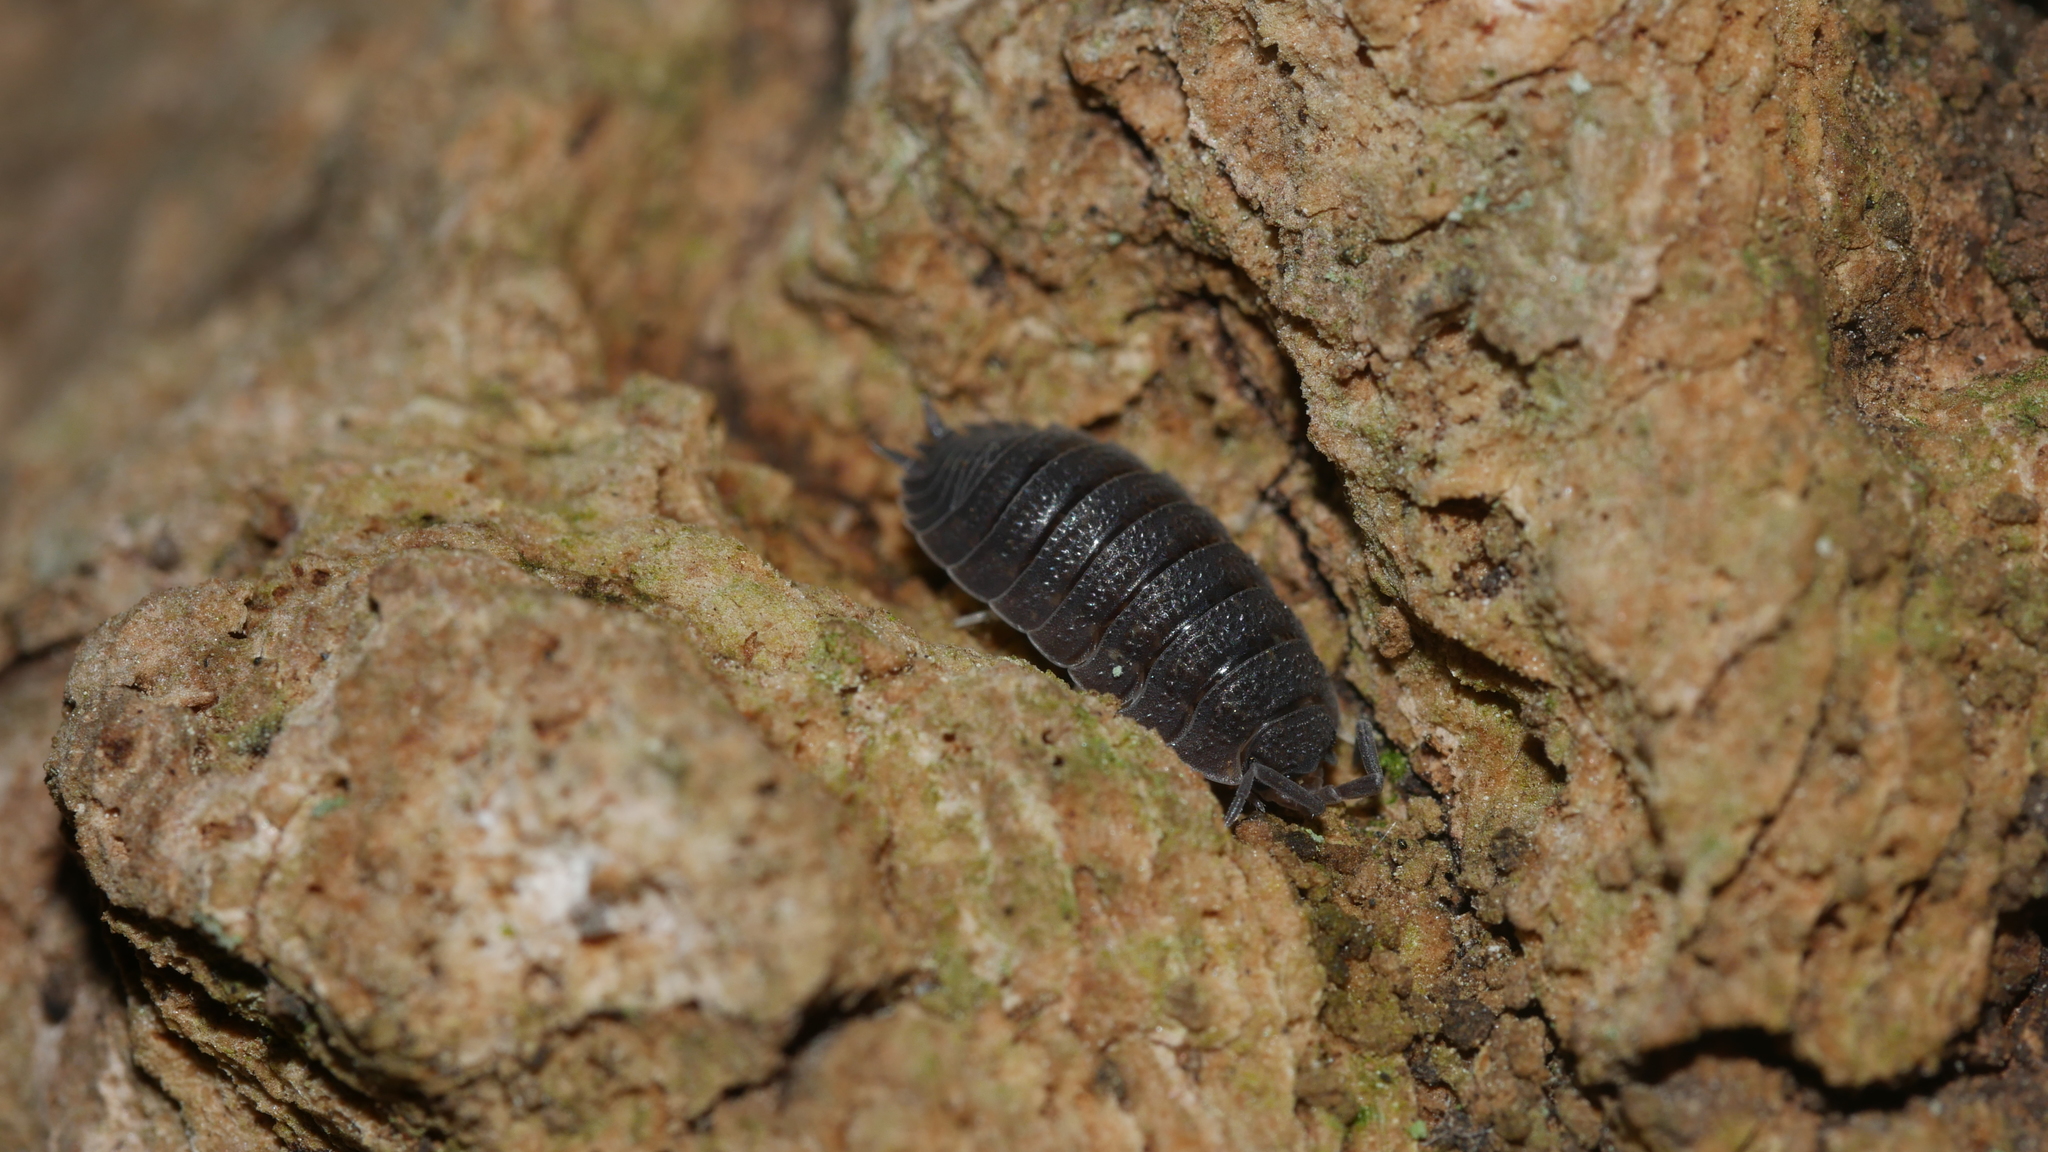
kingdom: Animalia
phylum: Arthropoda
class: Malacostraca
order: Isopoda
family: Porcellionidae
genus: Porcellio
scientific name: Porcellio scaber
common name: Common rough woodlouse
